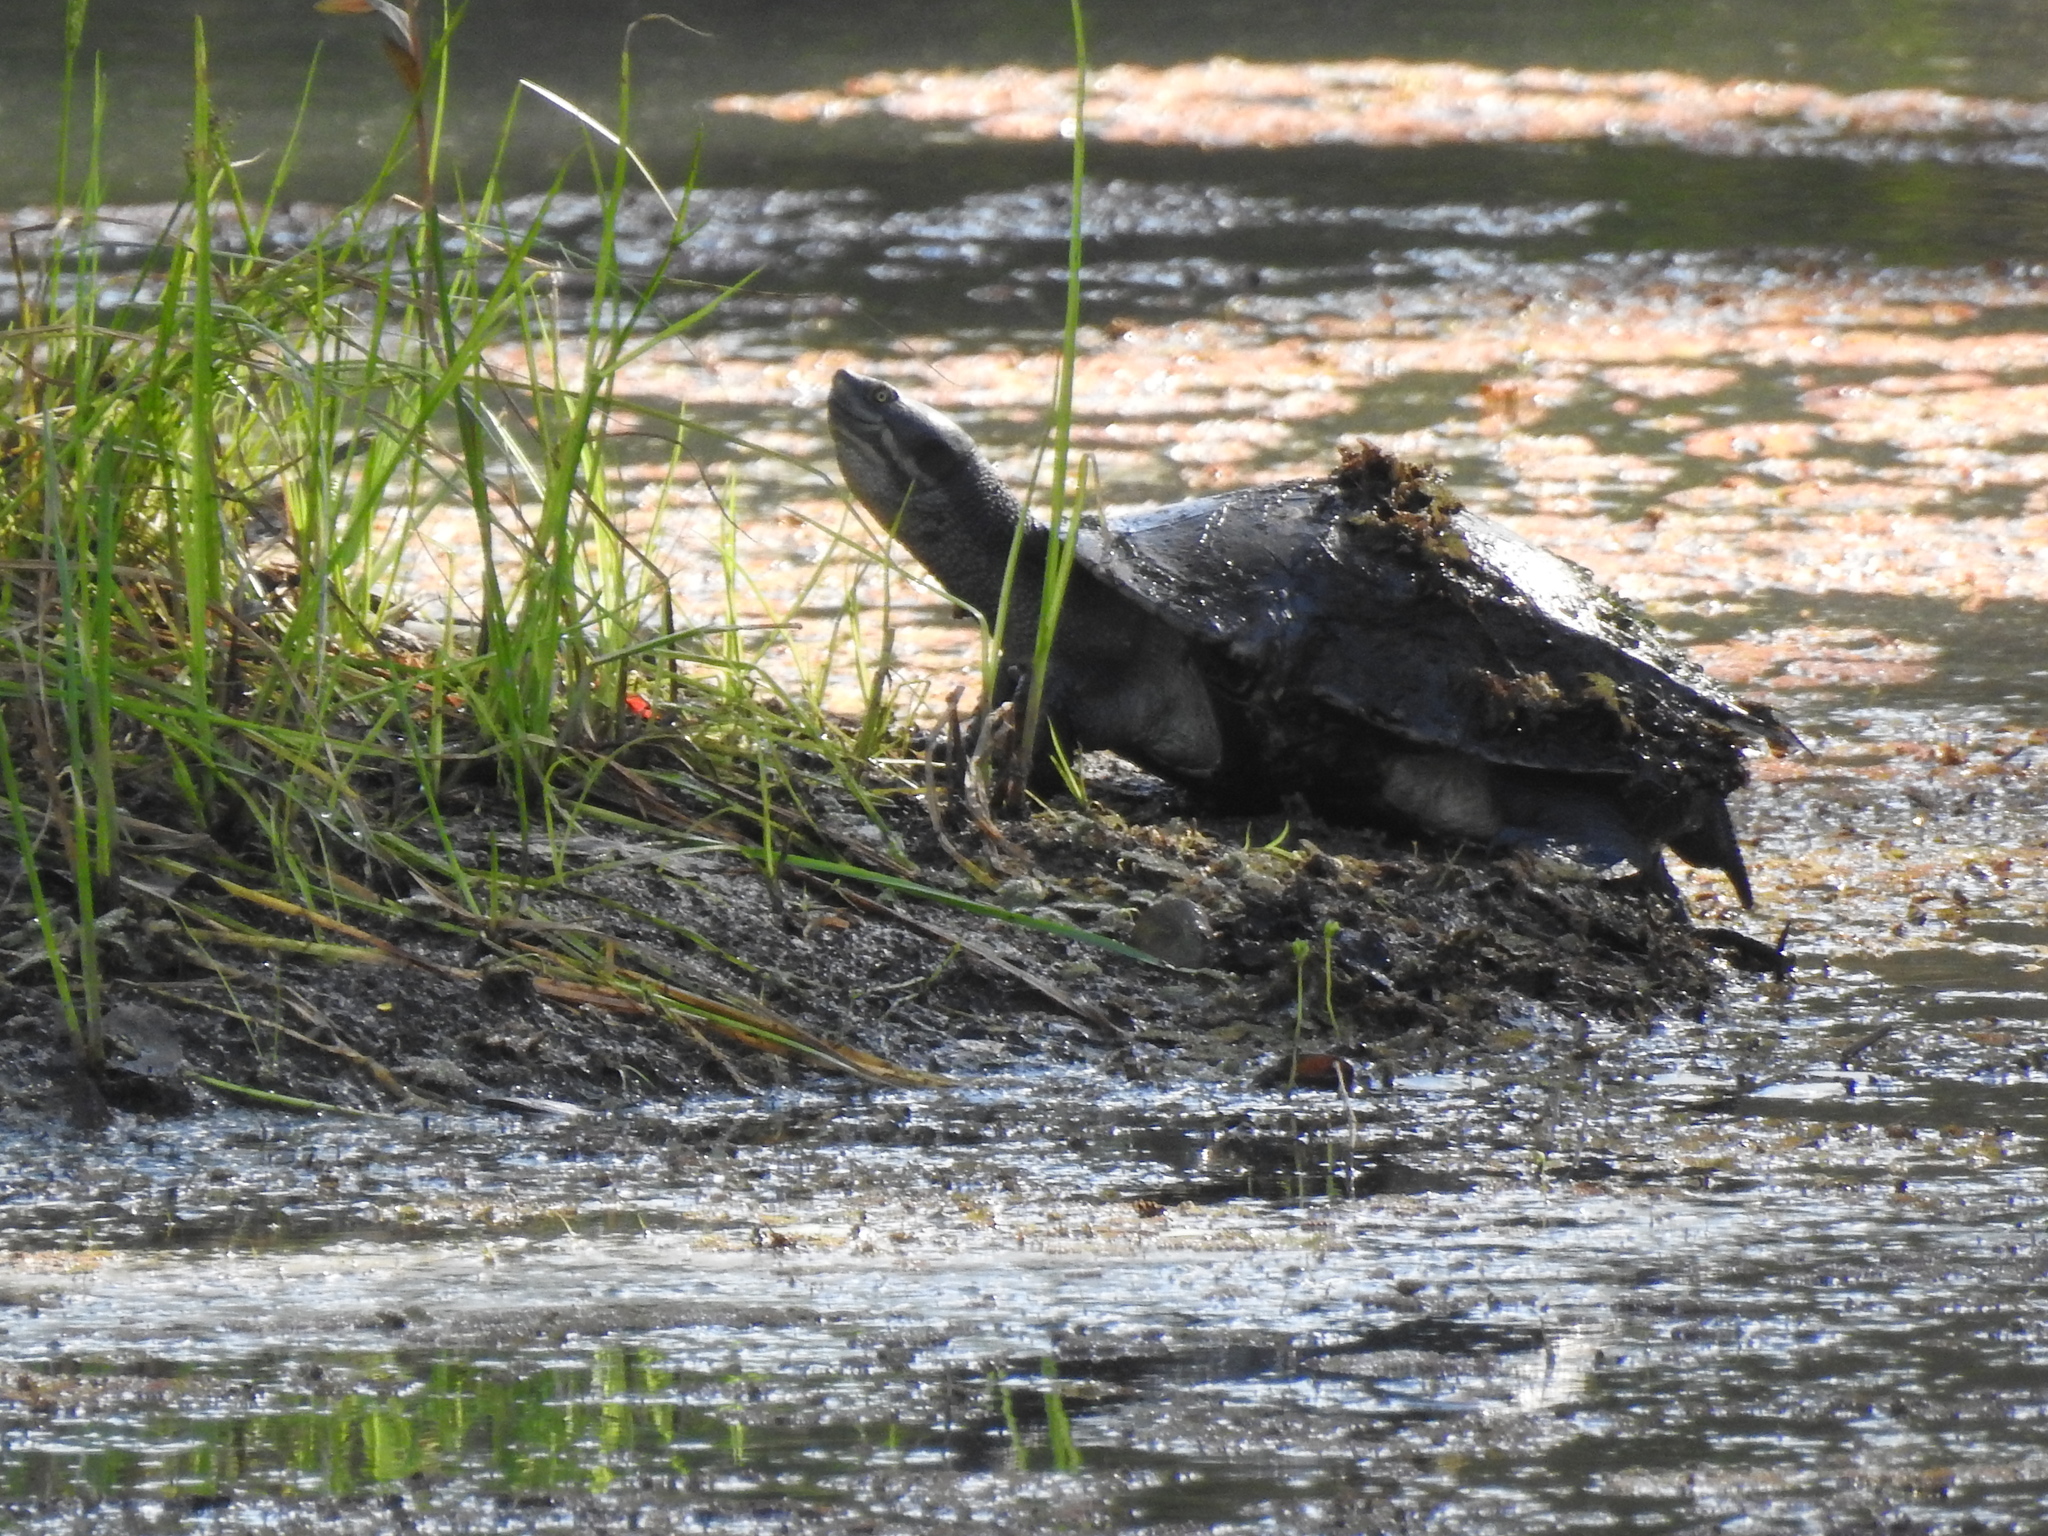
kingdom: Animalia
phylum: Chordata
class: Testudines
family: Chelidae
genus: Emydura
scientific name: Emydura macquarii
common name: Murray river turtle
